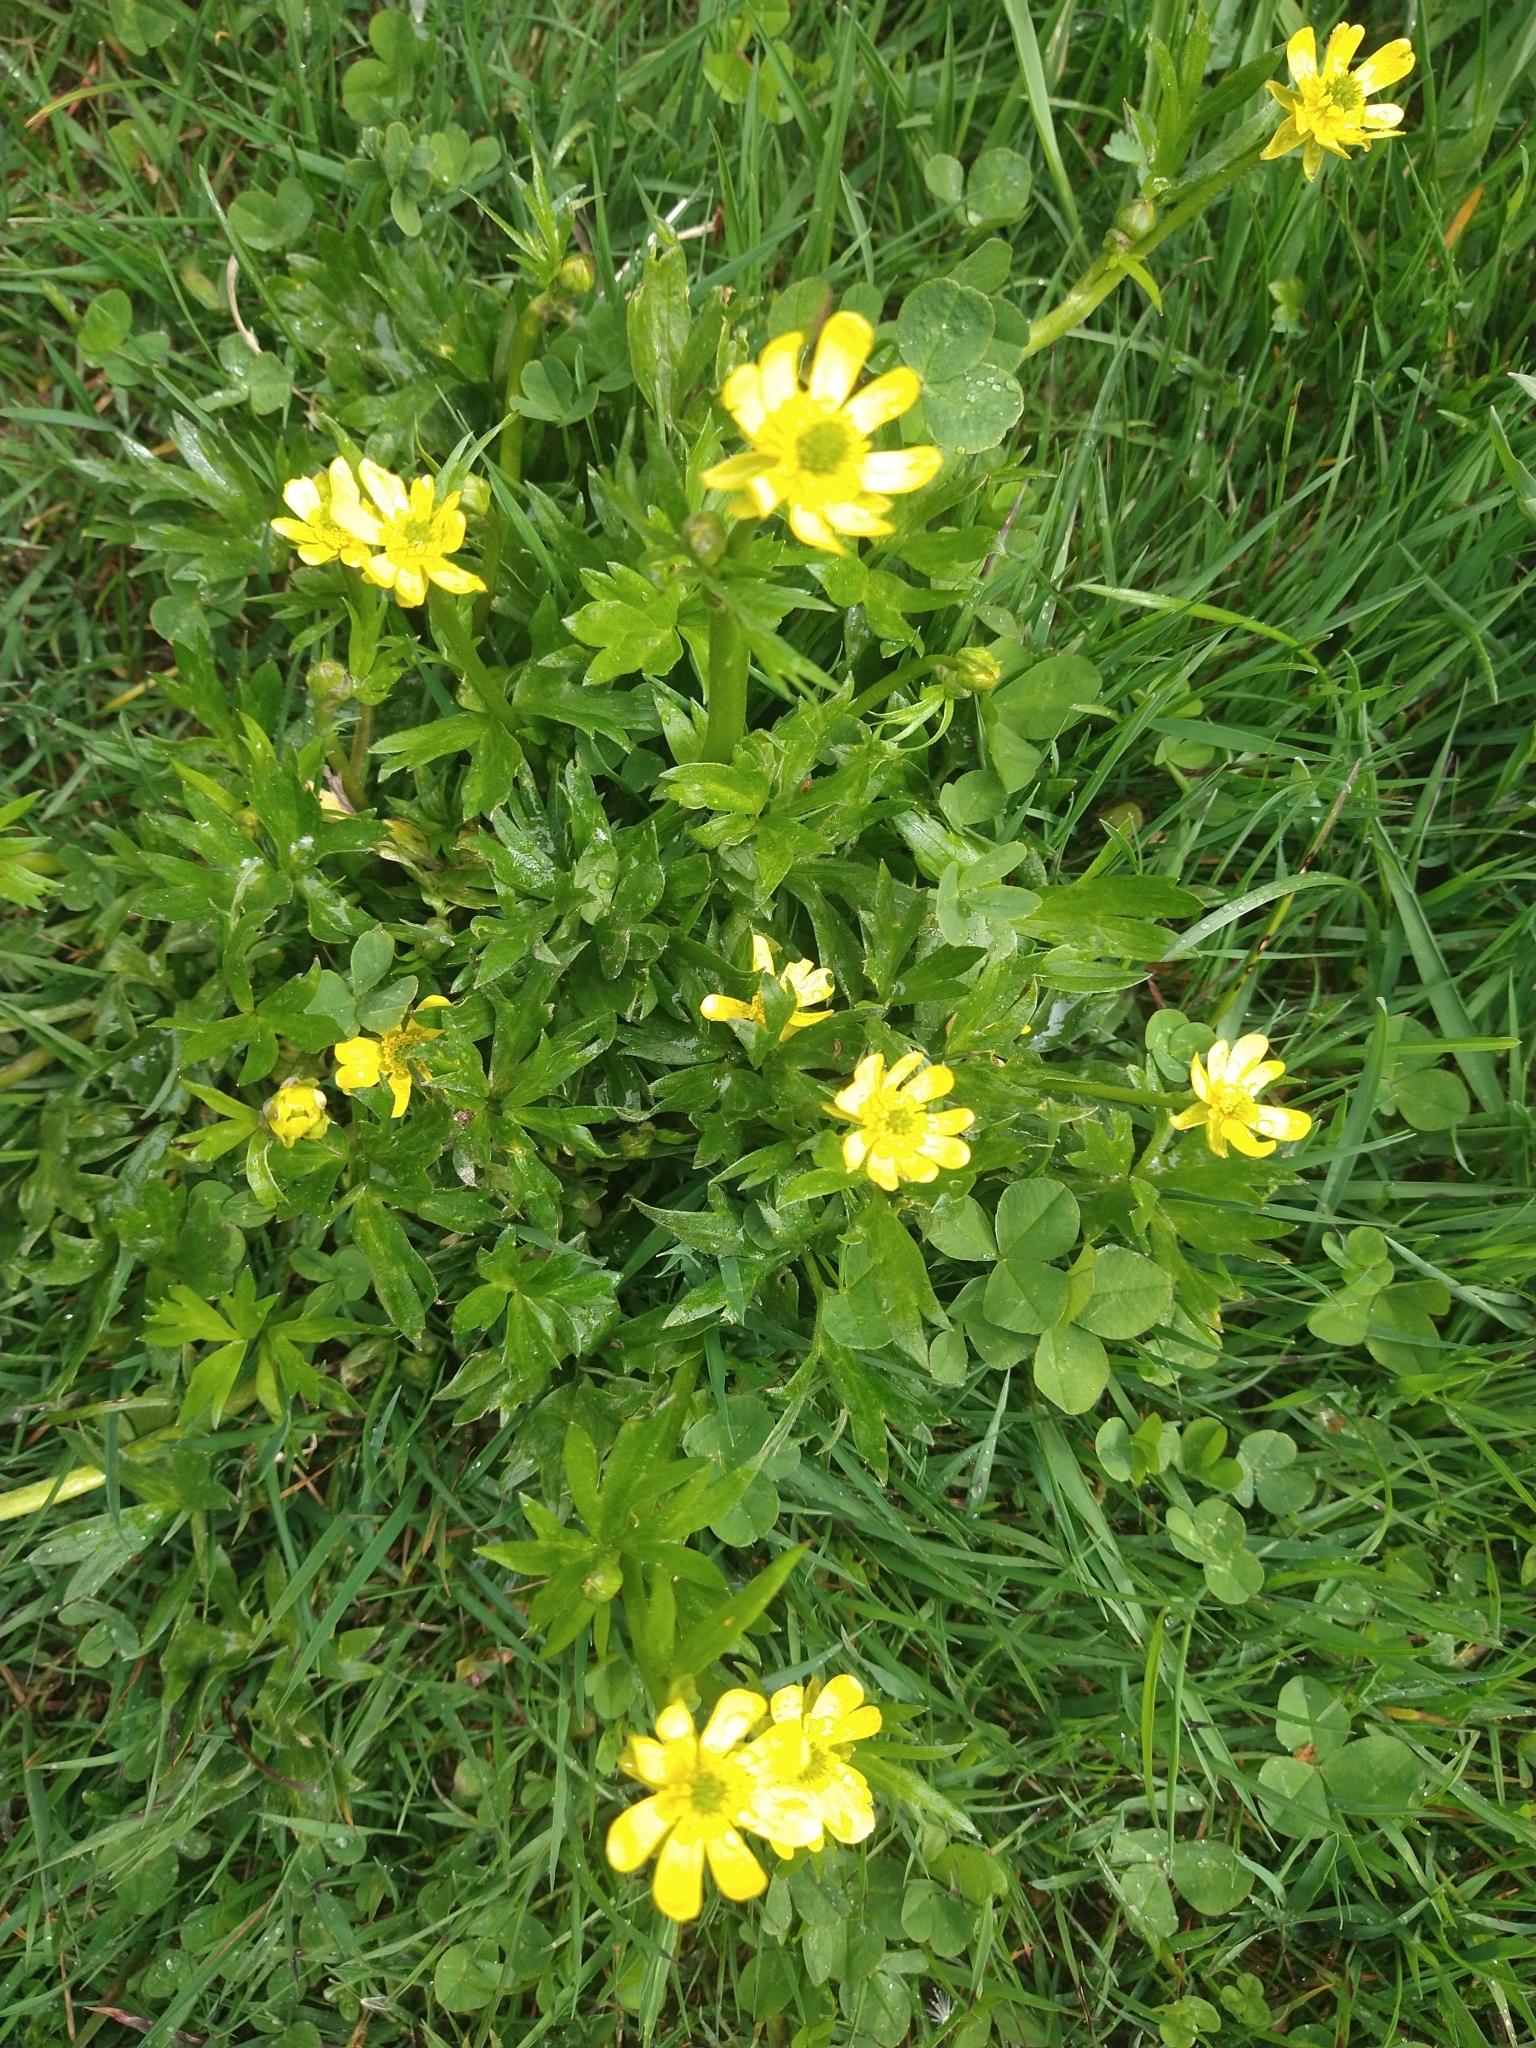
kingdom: Plantae
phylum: Tracheophyta
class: Magnoliopsida
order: Ranunculales
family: Ranunculaceae
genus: Ranunculus
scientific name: Ranunculus peduncularis
